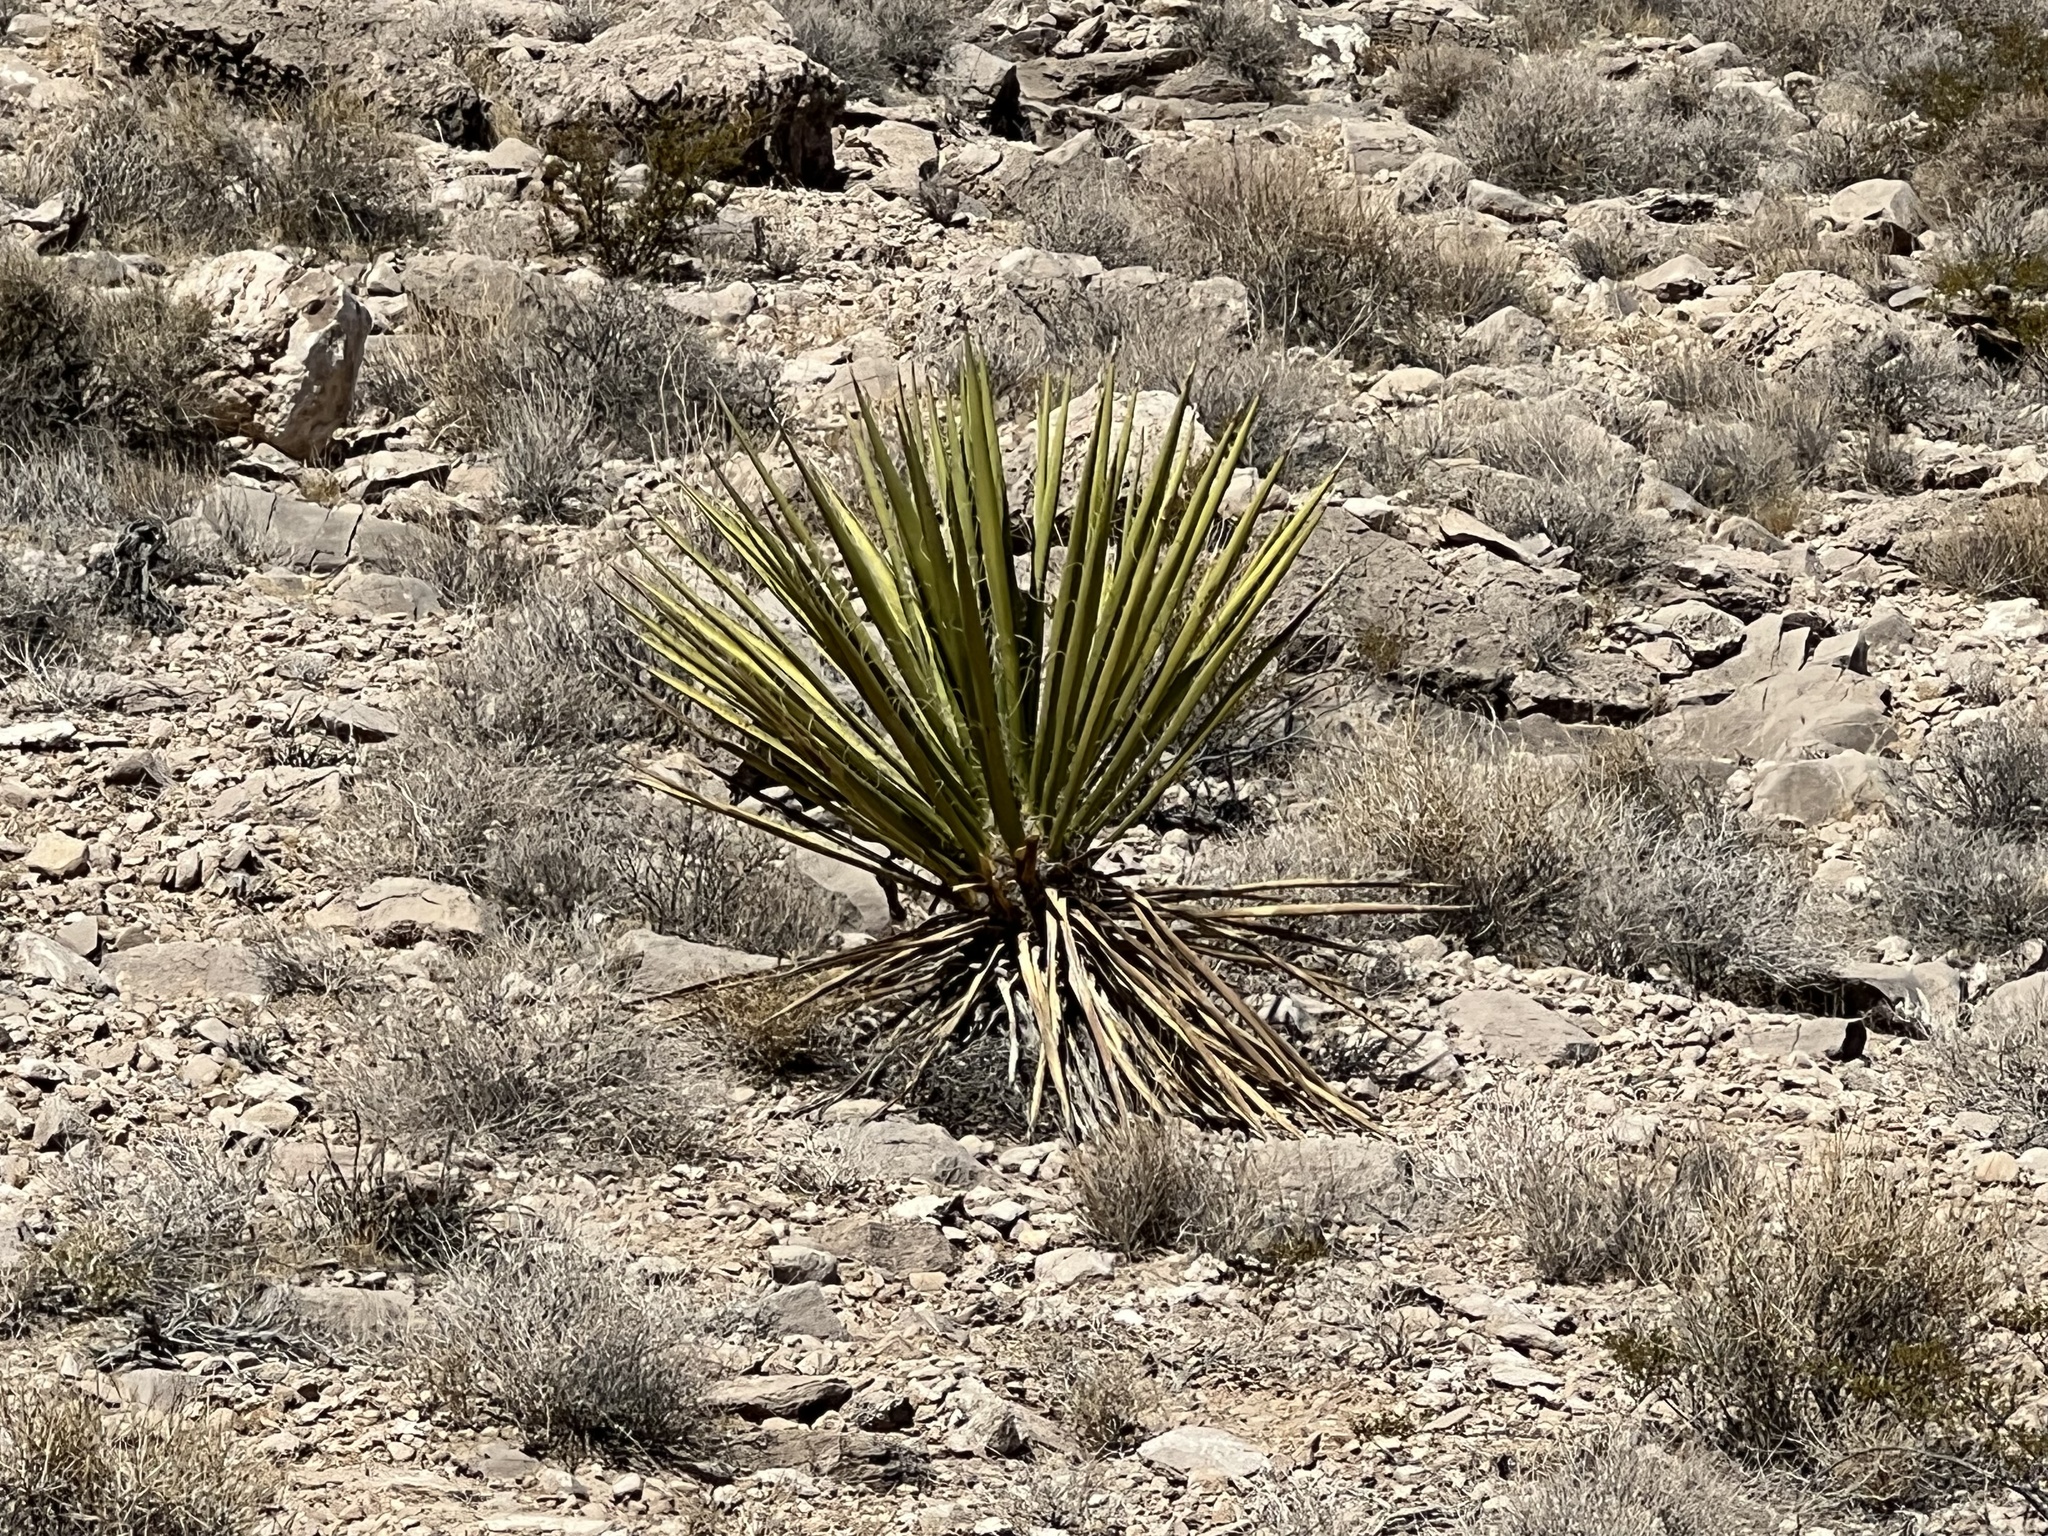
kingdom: Plantae
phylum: Tracheophyta
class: Liliopsida
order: Asparagales
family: Asparagaceae
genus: Yucca
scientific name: Yucca schidigera
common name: Mojave yucca
